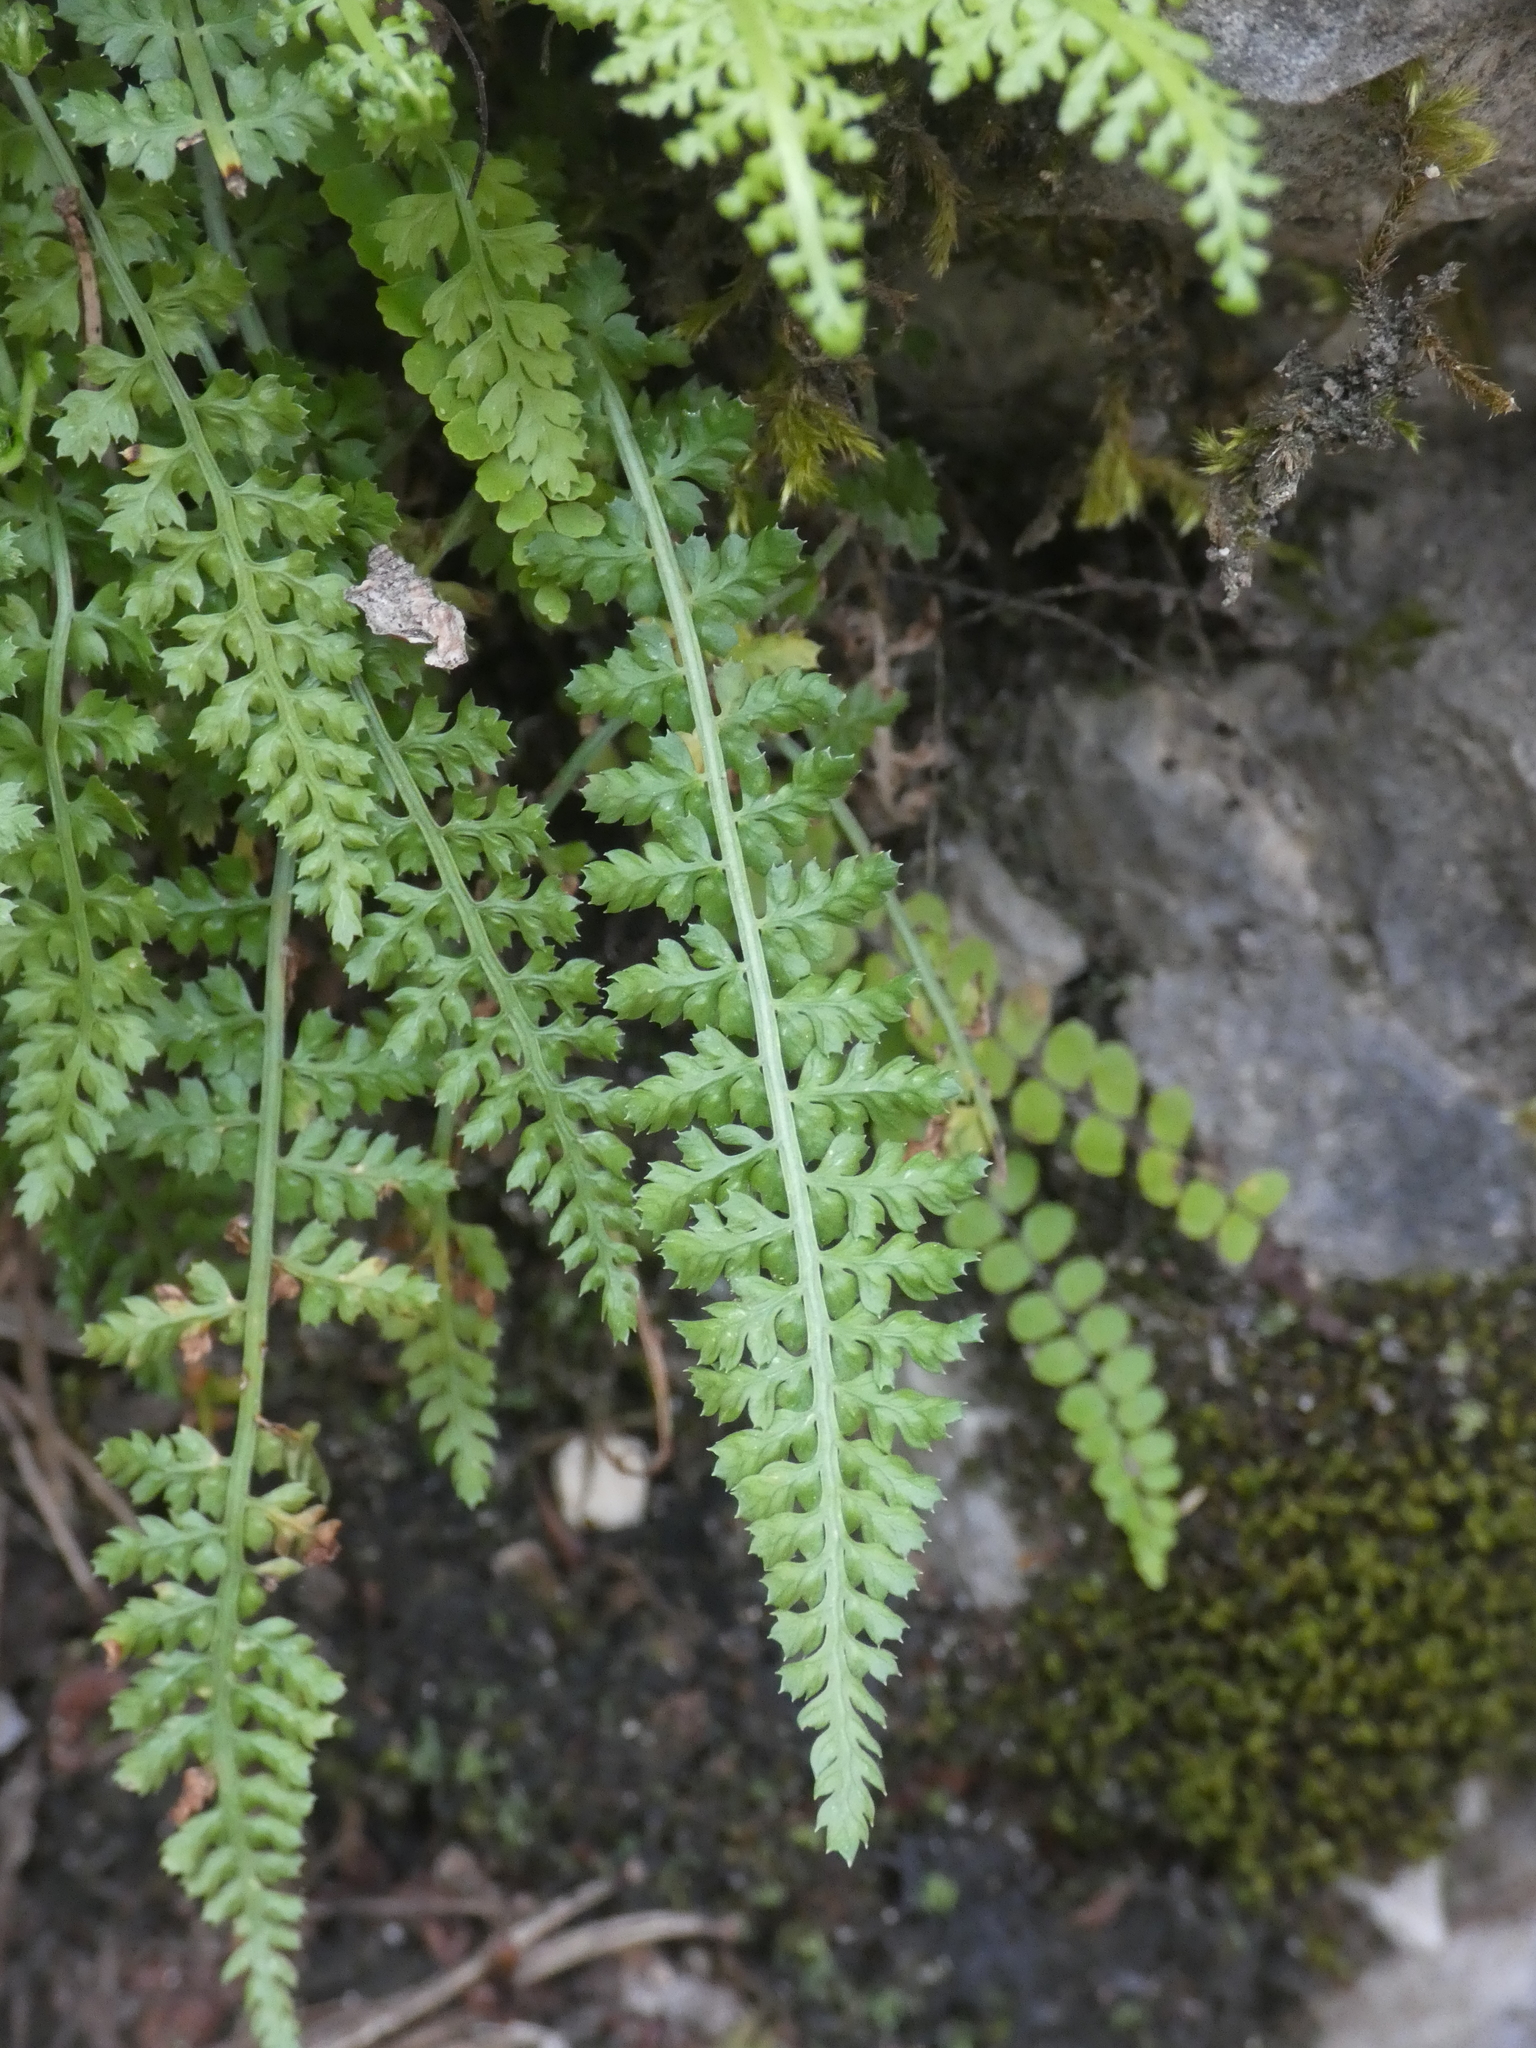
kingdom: Plantae
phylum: Tracheophyta
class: Polypodiopsida
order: Polypodiales
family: Aspleniaceae
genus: Asplenium
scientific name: Asplenium fontanum
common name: Fountain spleenwort
